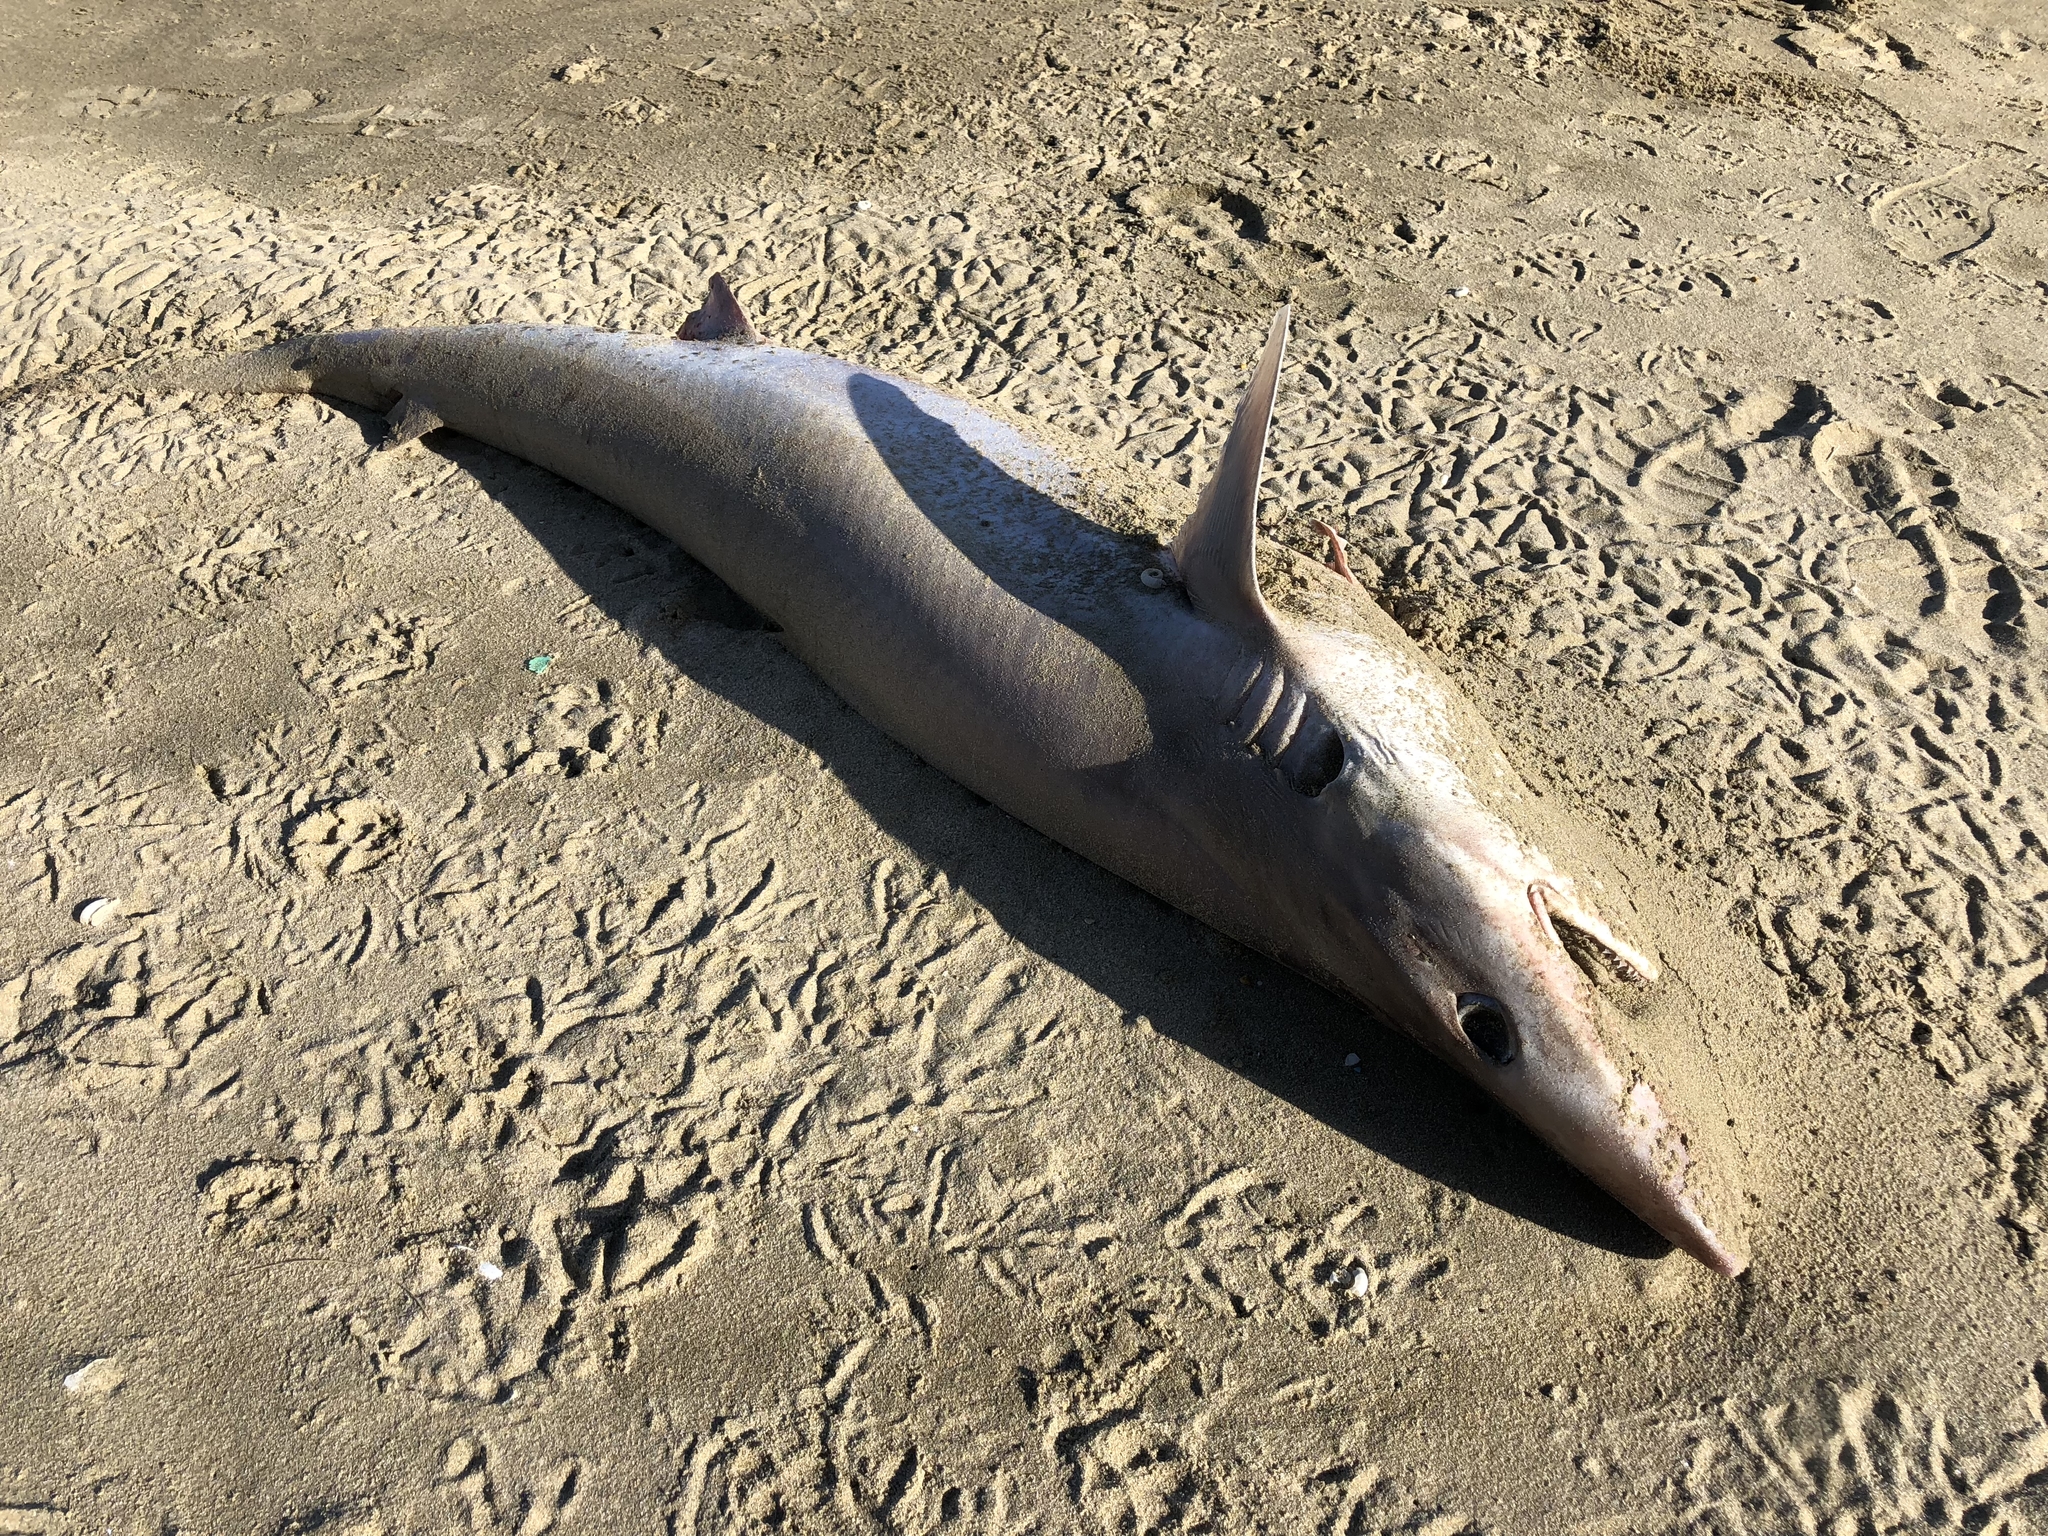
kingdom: Animalia
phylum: Chordata
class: Elasmobranchii
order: Carcharhiniformes
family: Triakidae
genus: Galeorhinus
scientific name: Galeorhinus galeus
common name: Tope
